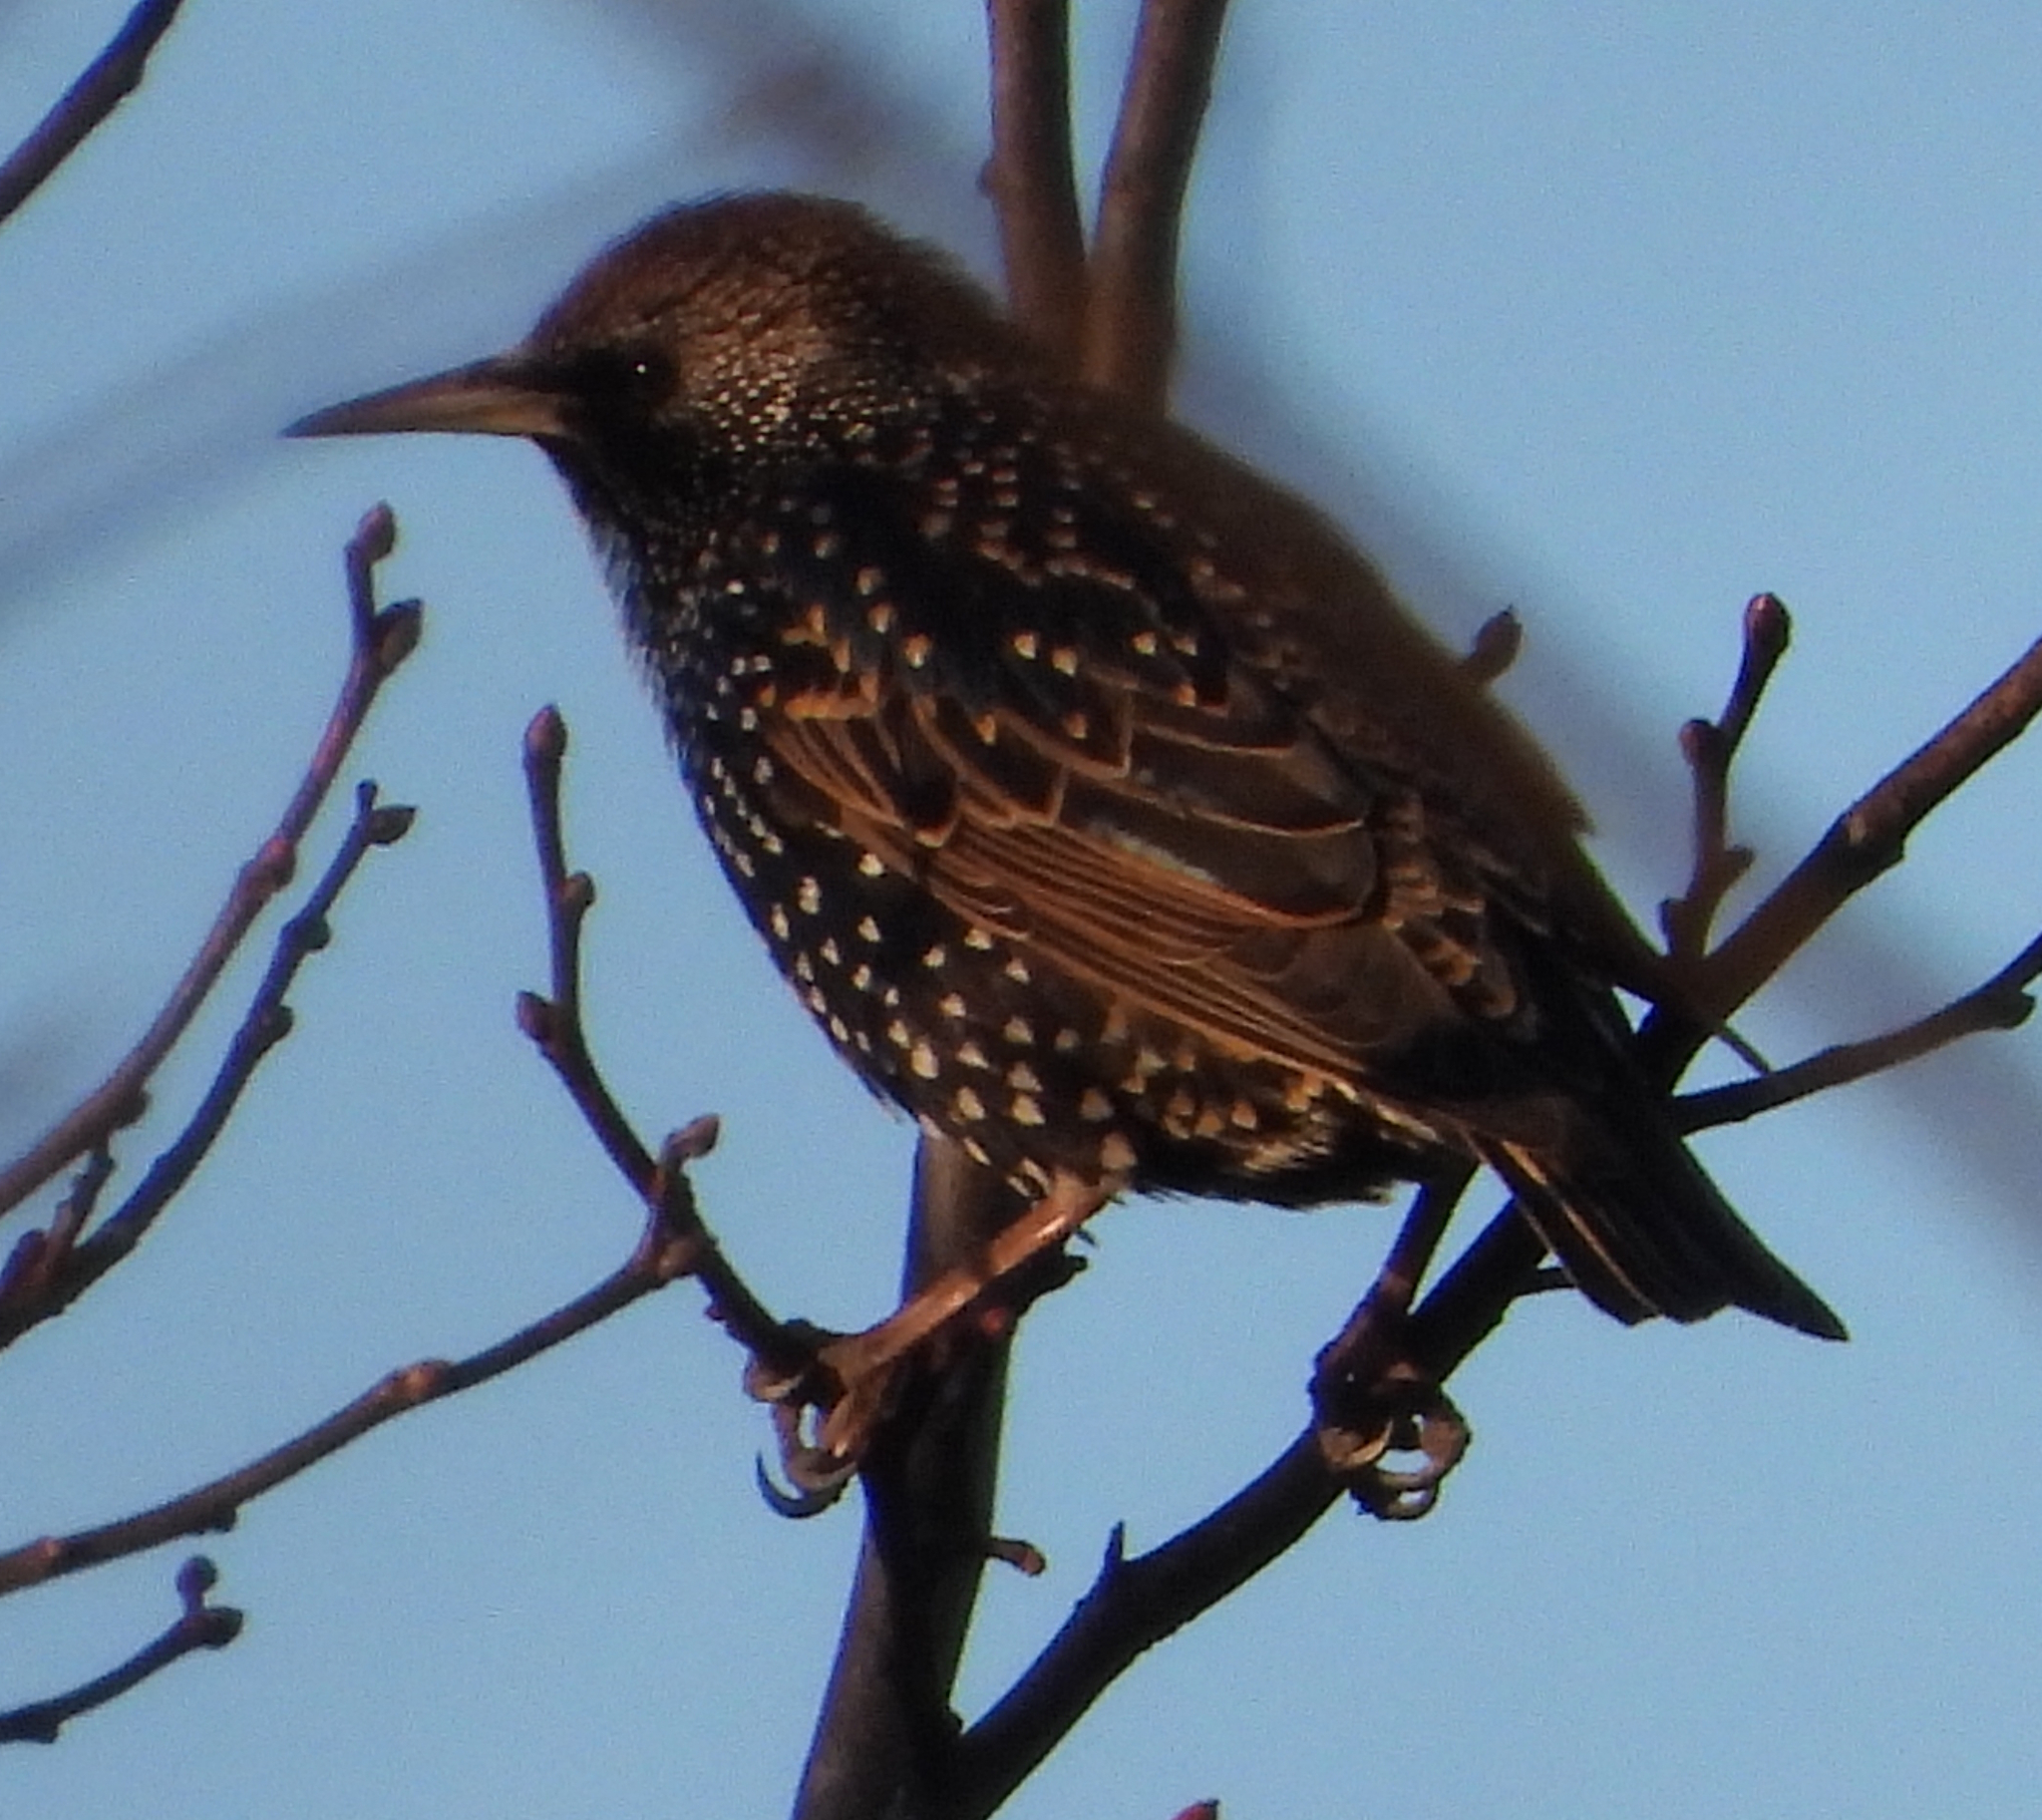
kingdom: Animalia
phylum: Chordata
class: Aves
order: Passeriformes
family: Sturnidae
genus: Sturnus
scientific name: Sturnus vulgaris
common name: Common starling
